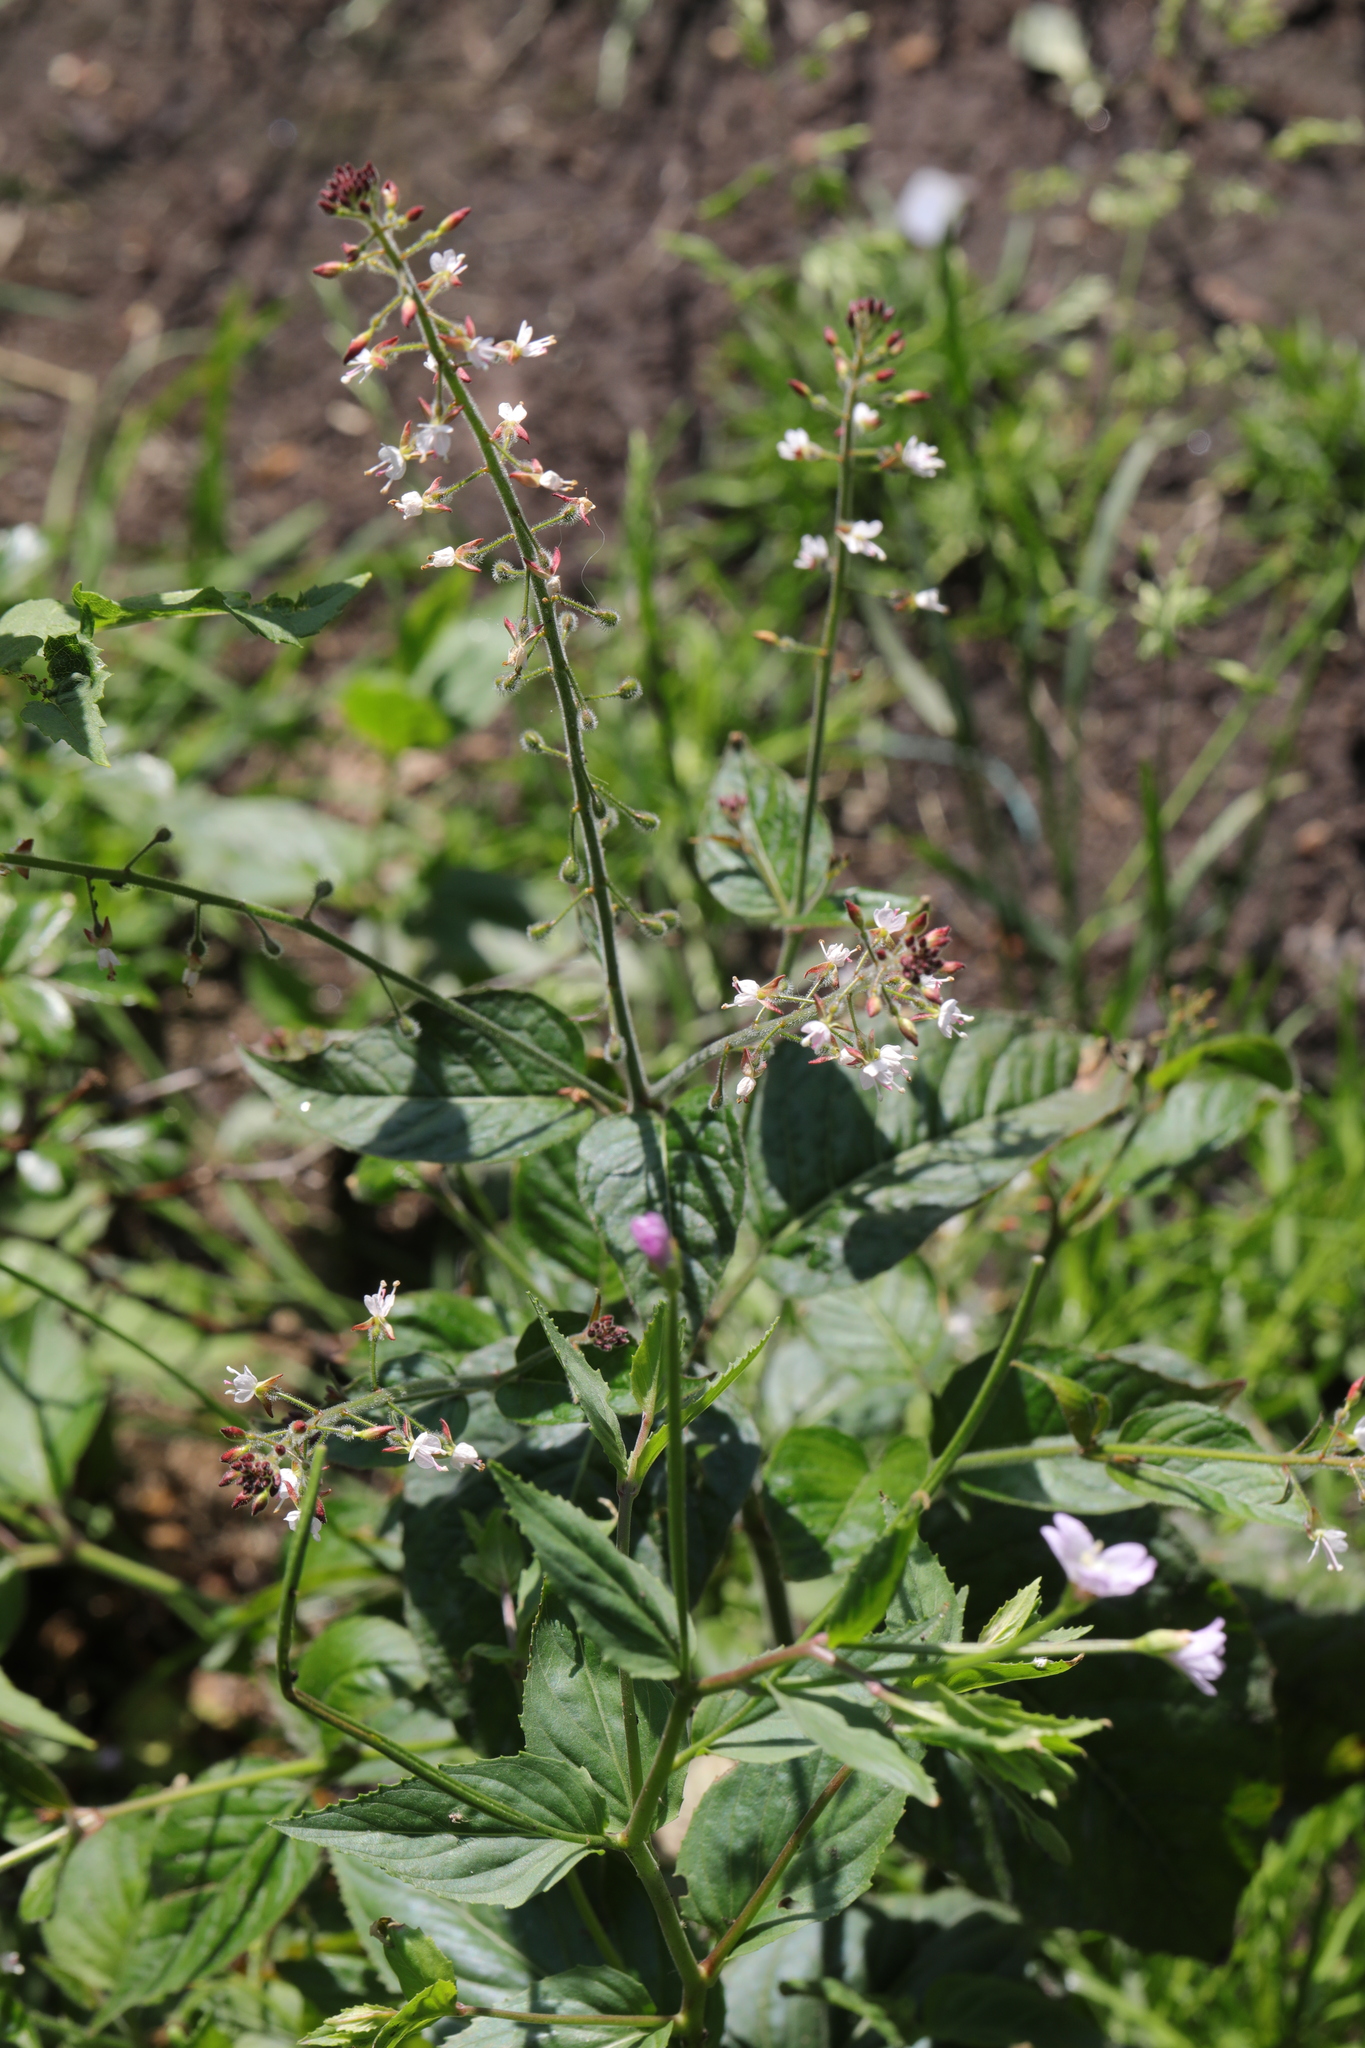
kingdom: Plantae
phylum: Tracheophyta
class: Magnoliopsida
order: Myrtales
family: Onagraceae
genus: Circaea
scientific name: Circaea lutetiana
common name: Enchanter's-nightshade
